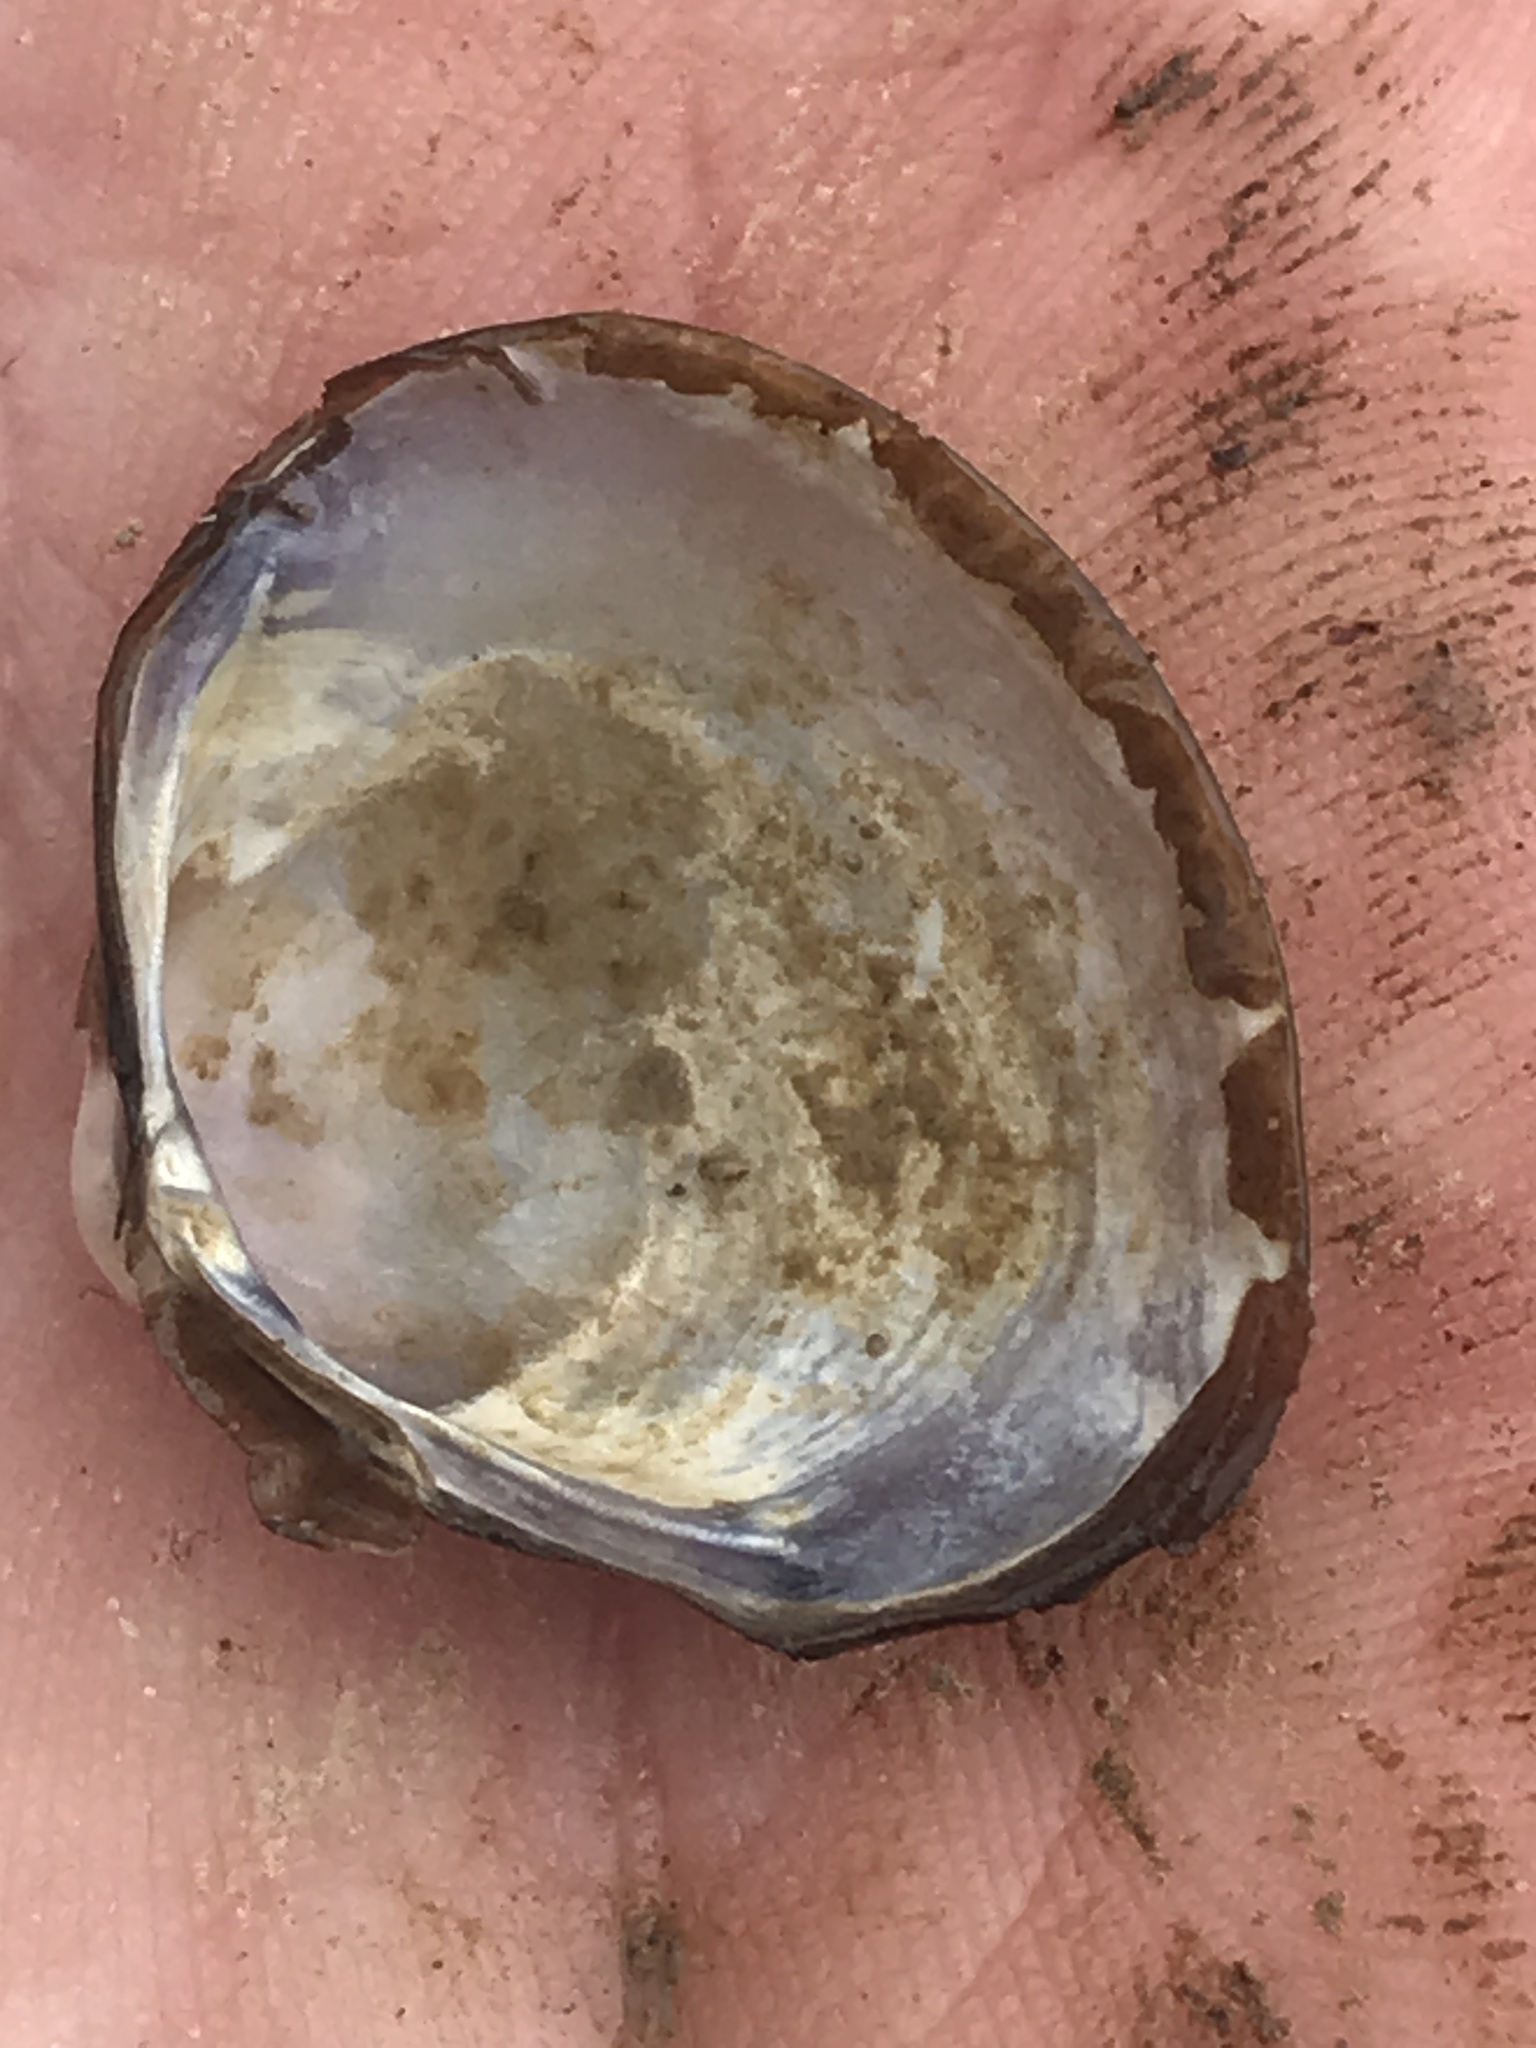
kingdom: Animalia
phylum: Mollusca
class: Bivalvia
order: Venerida
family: Cyrenidae
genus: Corbicula
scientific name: Corbicula fluminea
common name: Asian clam
